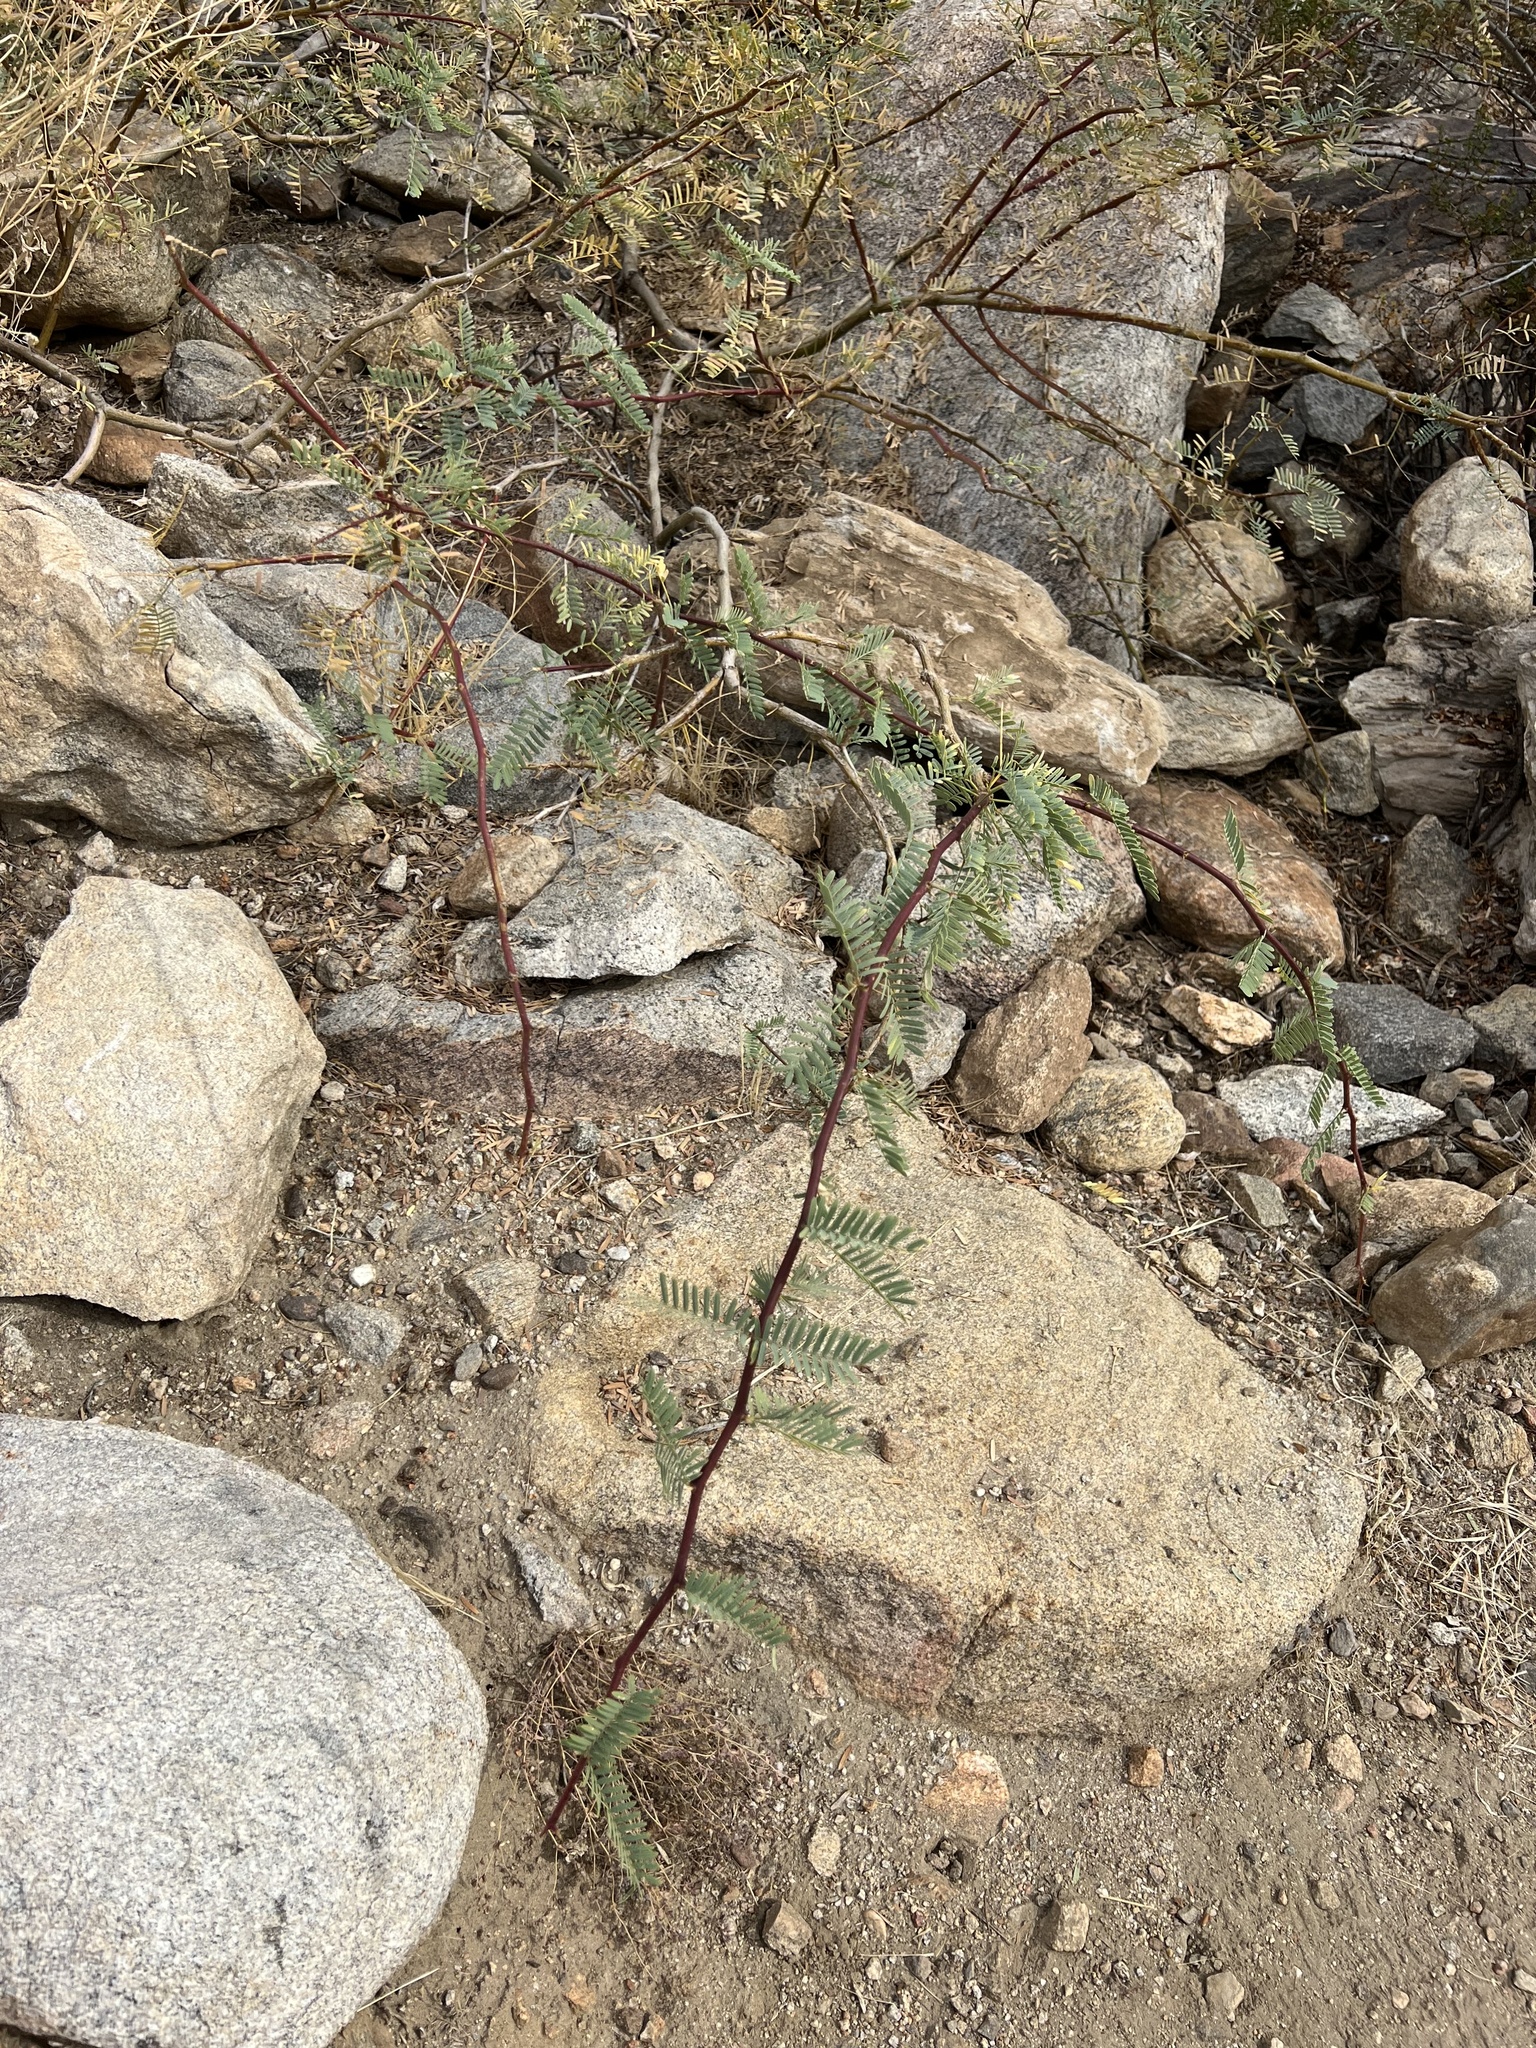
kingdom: Plantae
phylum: Tracheophyta
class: Magnoliopsida
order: Fabales
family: Fabaceae
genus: Prosopis
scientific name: Prosopis pubescens
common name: Screw-bean
